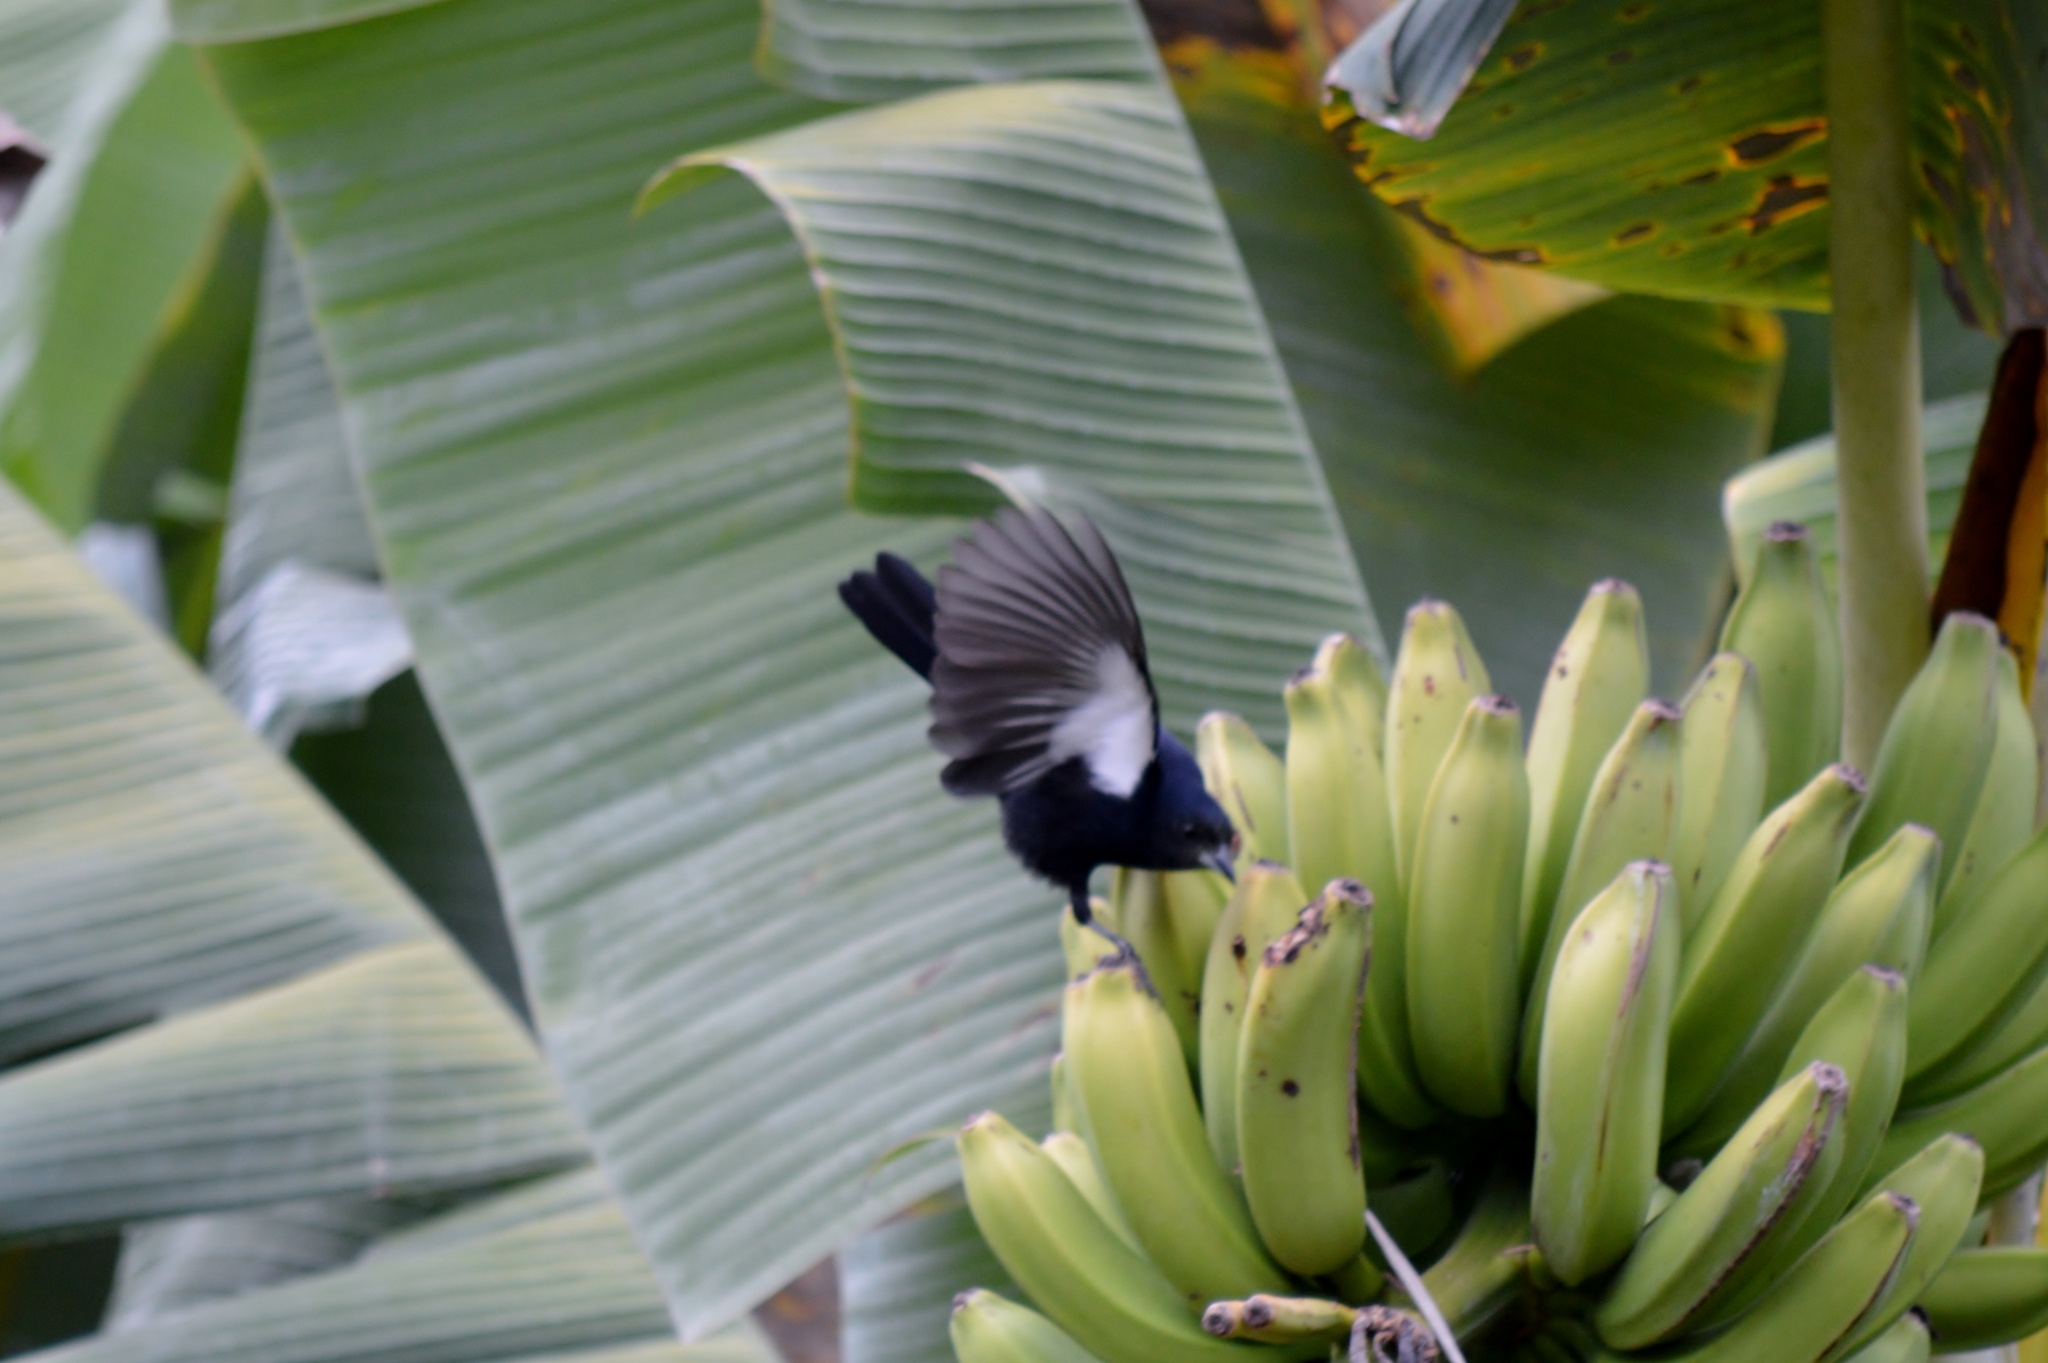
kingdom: Animalia
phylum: Chordata
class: Aves
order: Passeriformes
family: Thraupidae
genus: Tachyphonus
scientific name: Tachyphonus rufus
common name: White-lined tanager
